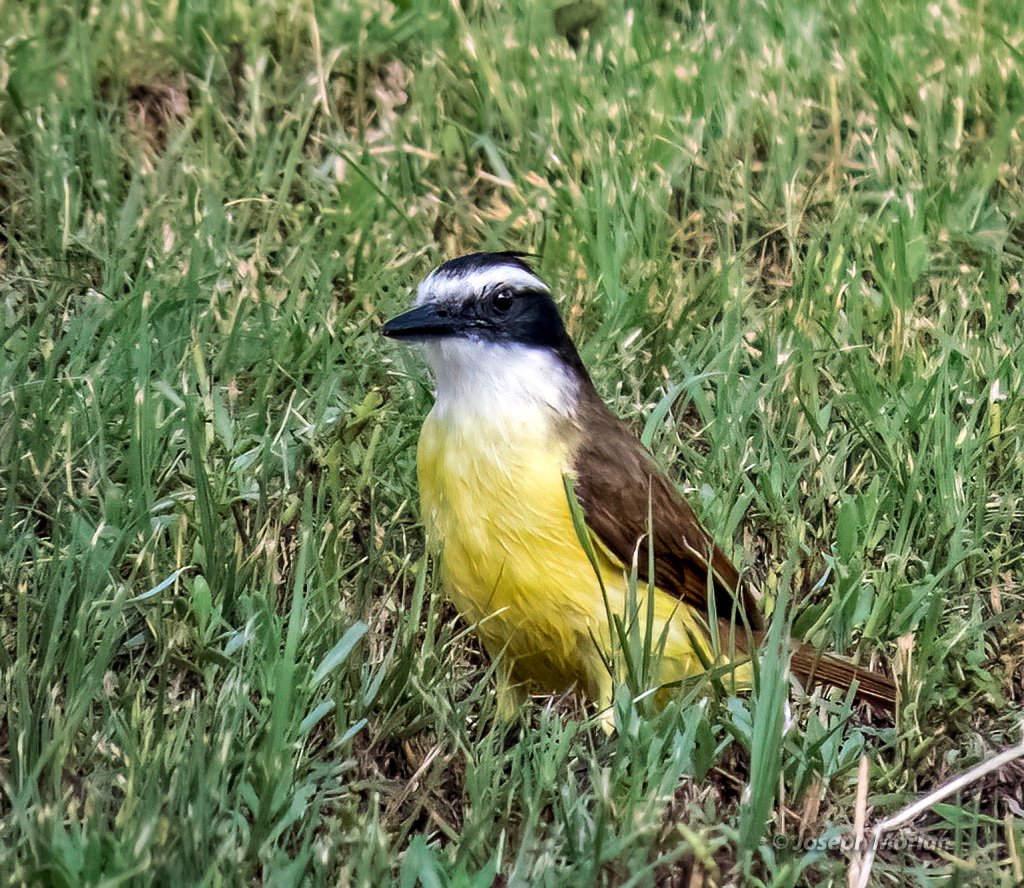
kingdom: Animalia
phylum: Chordata
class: Aves
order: Passeriformes
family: Tyrannidae
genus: Pitangus
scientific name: Pitangus sulphuratus
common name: Great kiskadee
